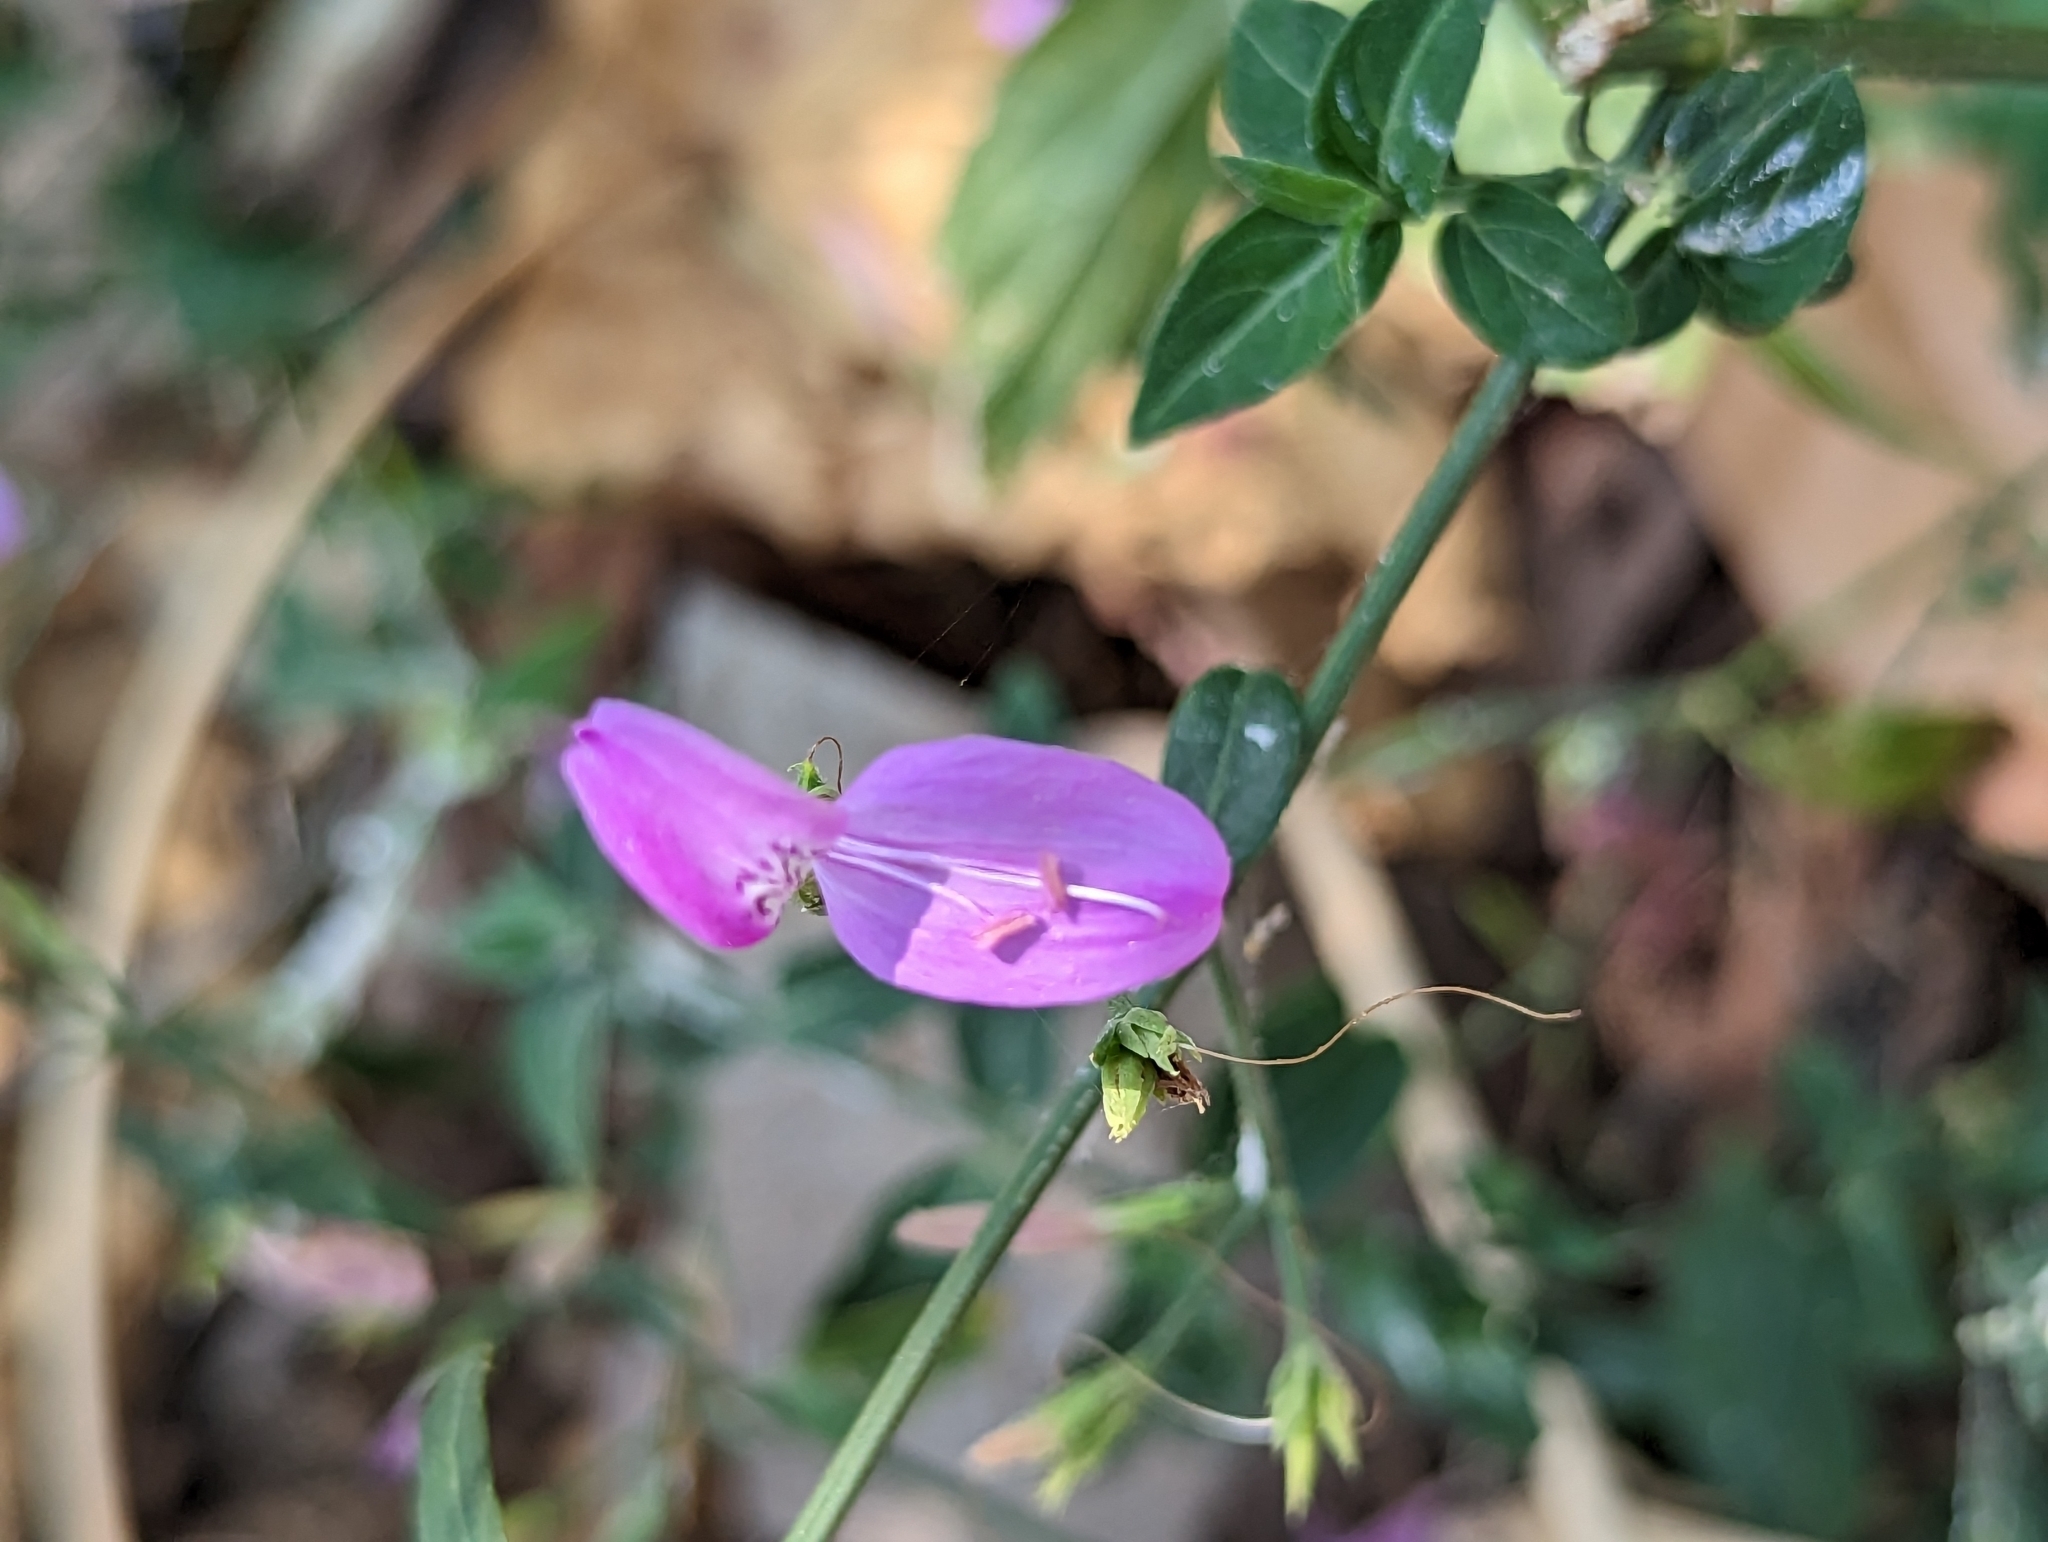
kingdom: Plantae
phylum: Tracheophyta
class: Magnoliopsida
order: Lamiales
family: Acanthaceae
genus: Hypoestes
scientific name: Hypoestes cumingiana
